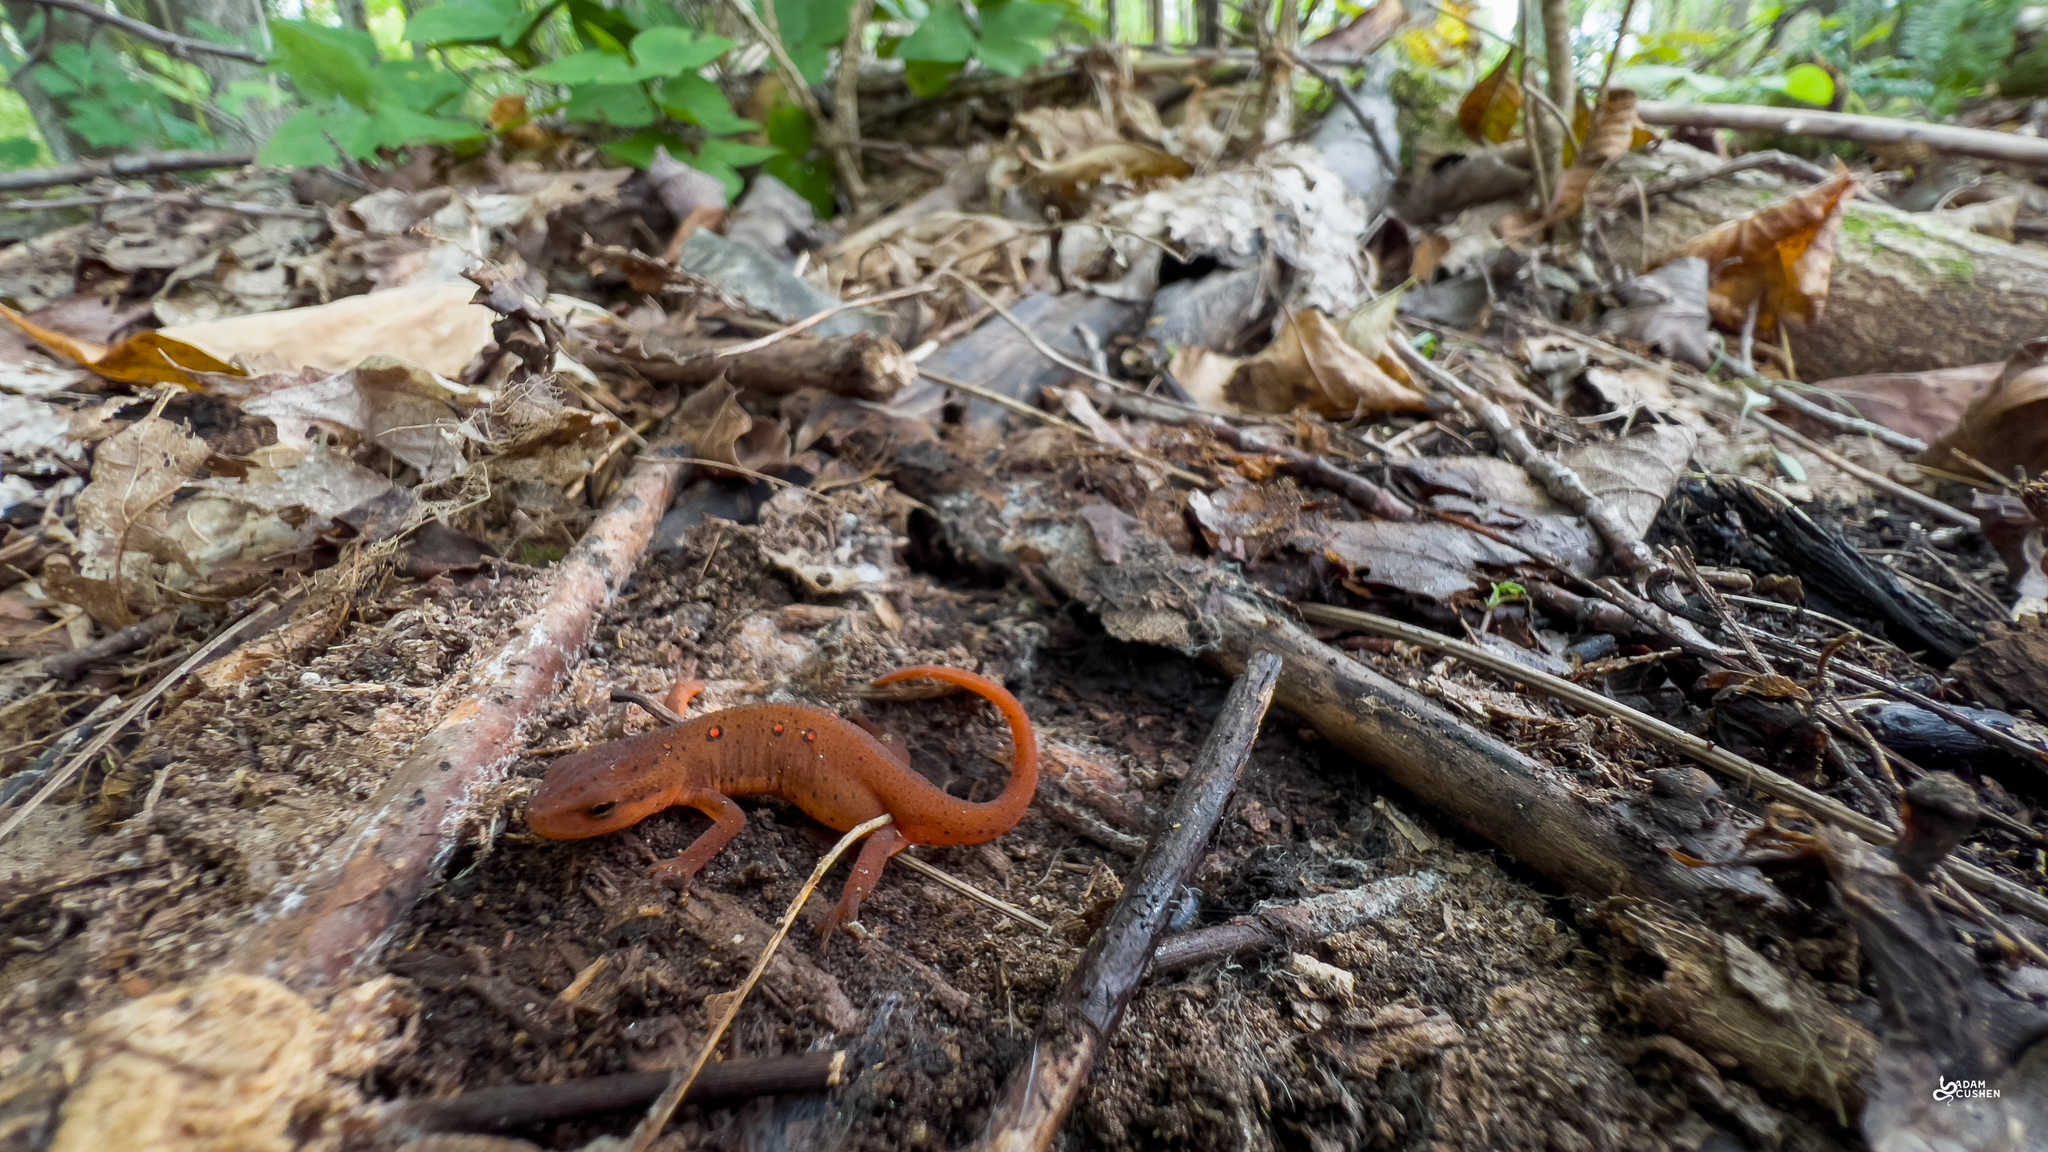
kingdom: Animalia
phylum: Chordata
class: Amphibia
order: Caudata
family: Salamandridae
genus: Notophthalmus
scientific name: Notophthalmus viridescens
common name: Eastern newt
